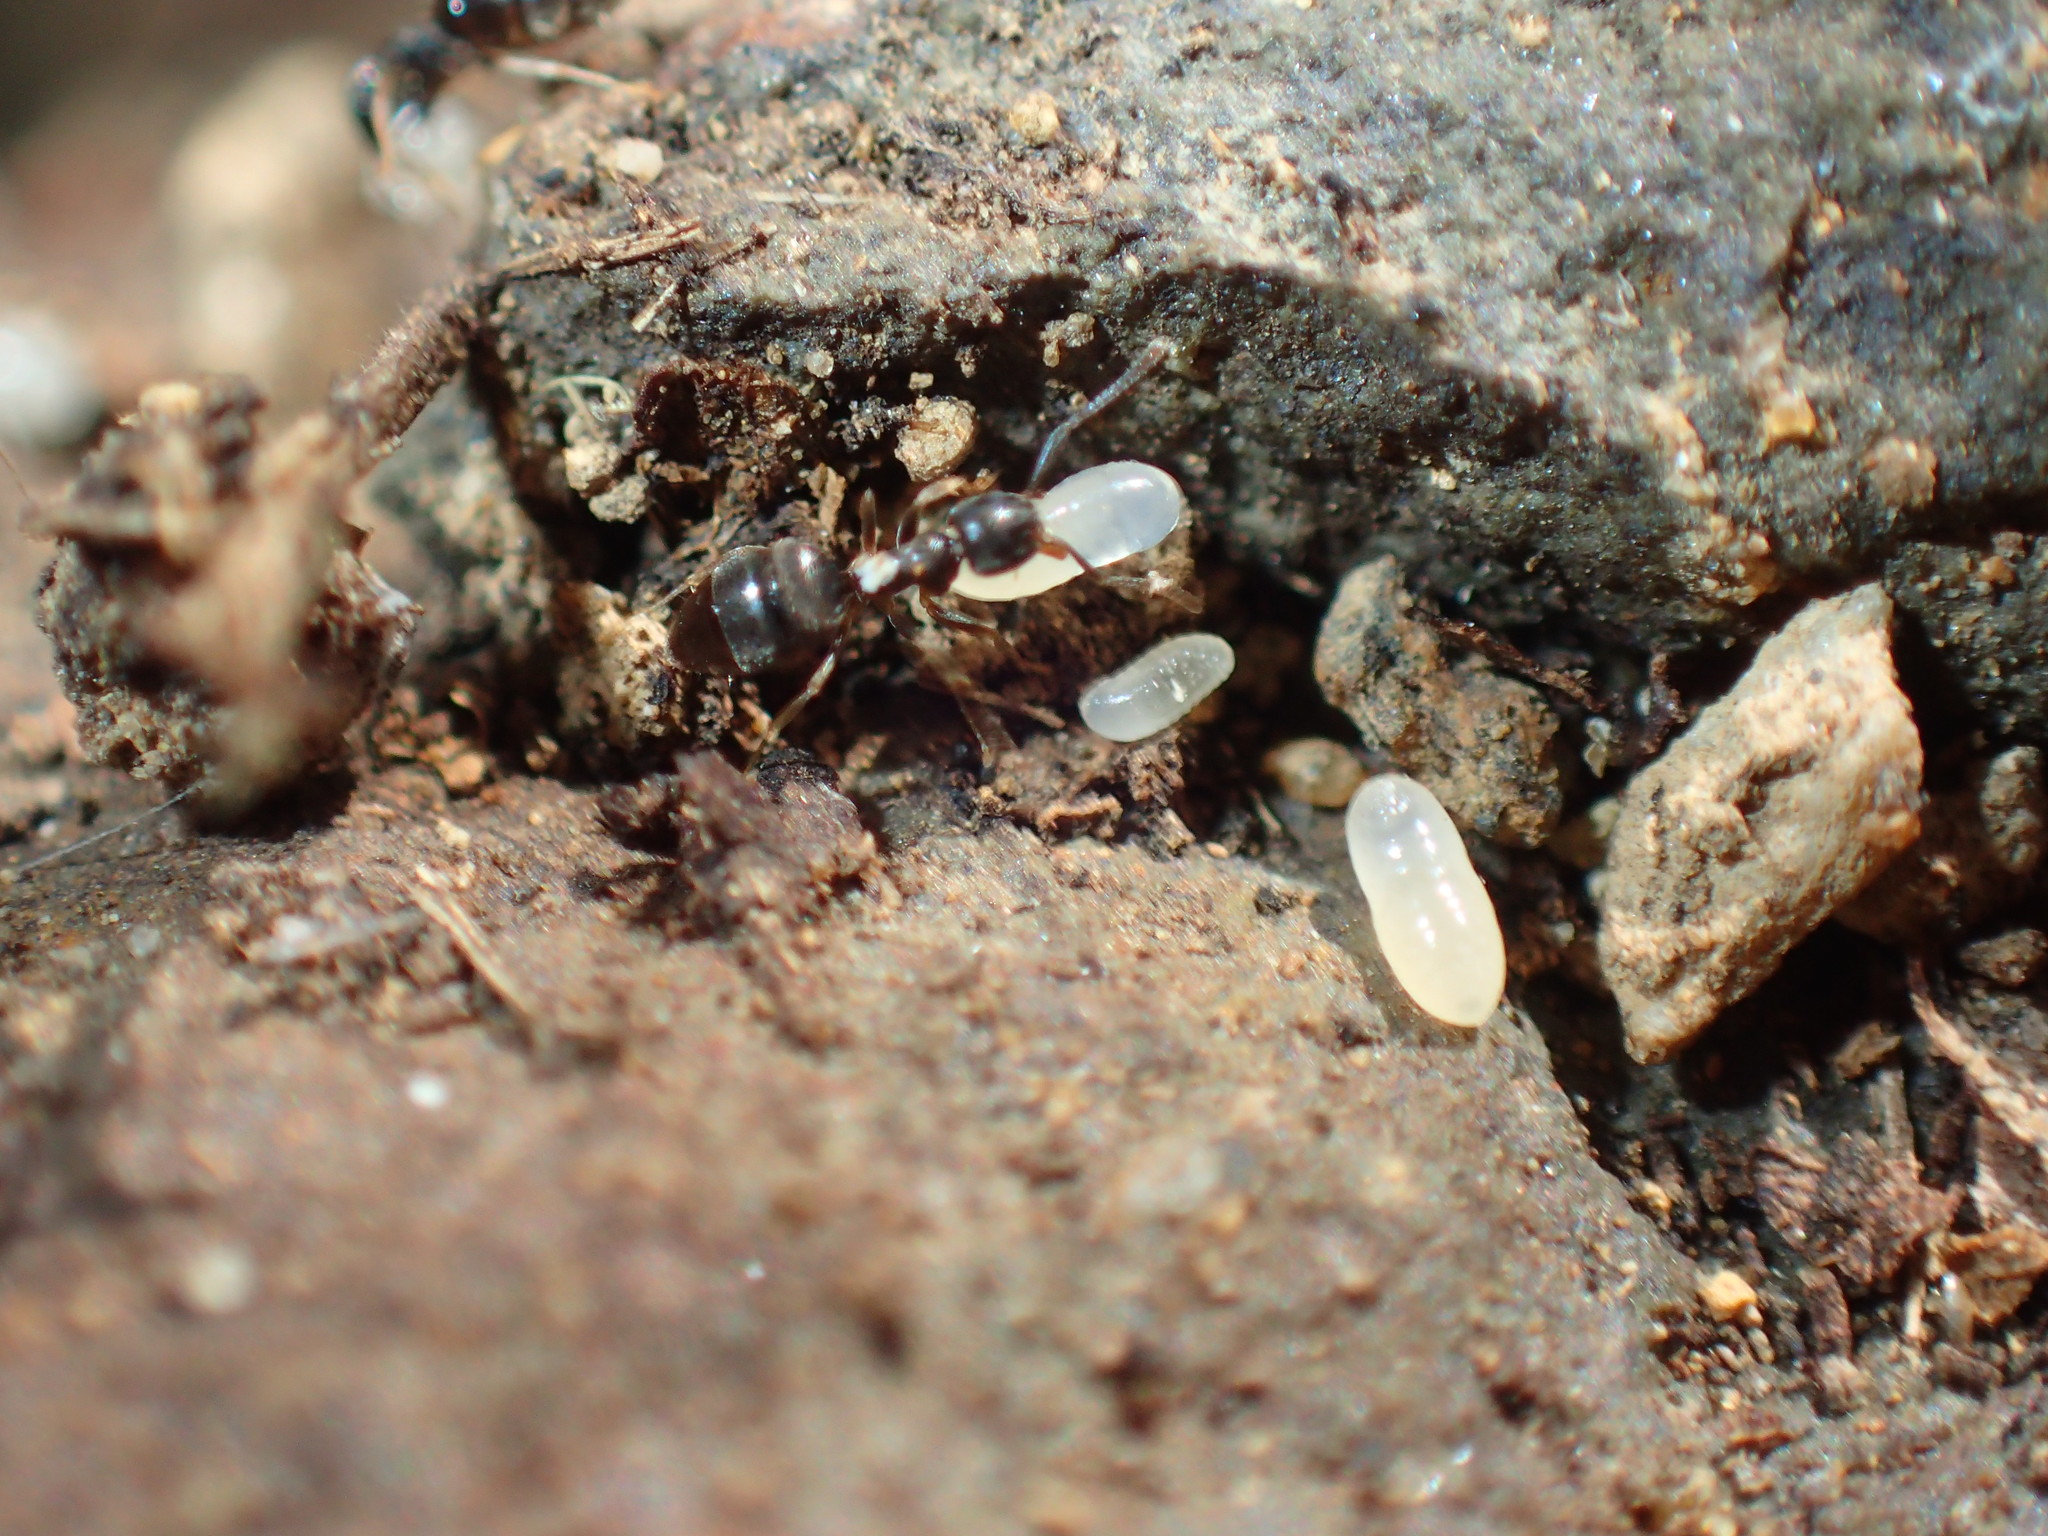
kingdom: Animalia
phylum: Arthropoda
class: Insecta
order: Hymenoptera
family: Formicidae
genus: Tapinoma
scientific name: Tapinoma pallipes
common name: Ant
